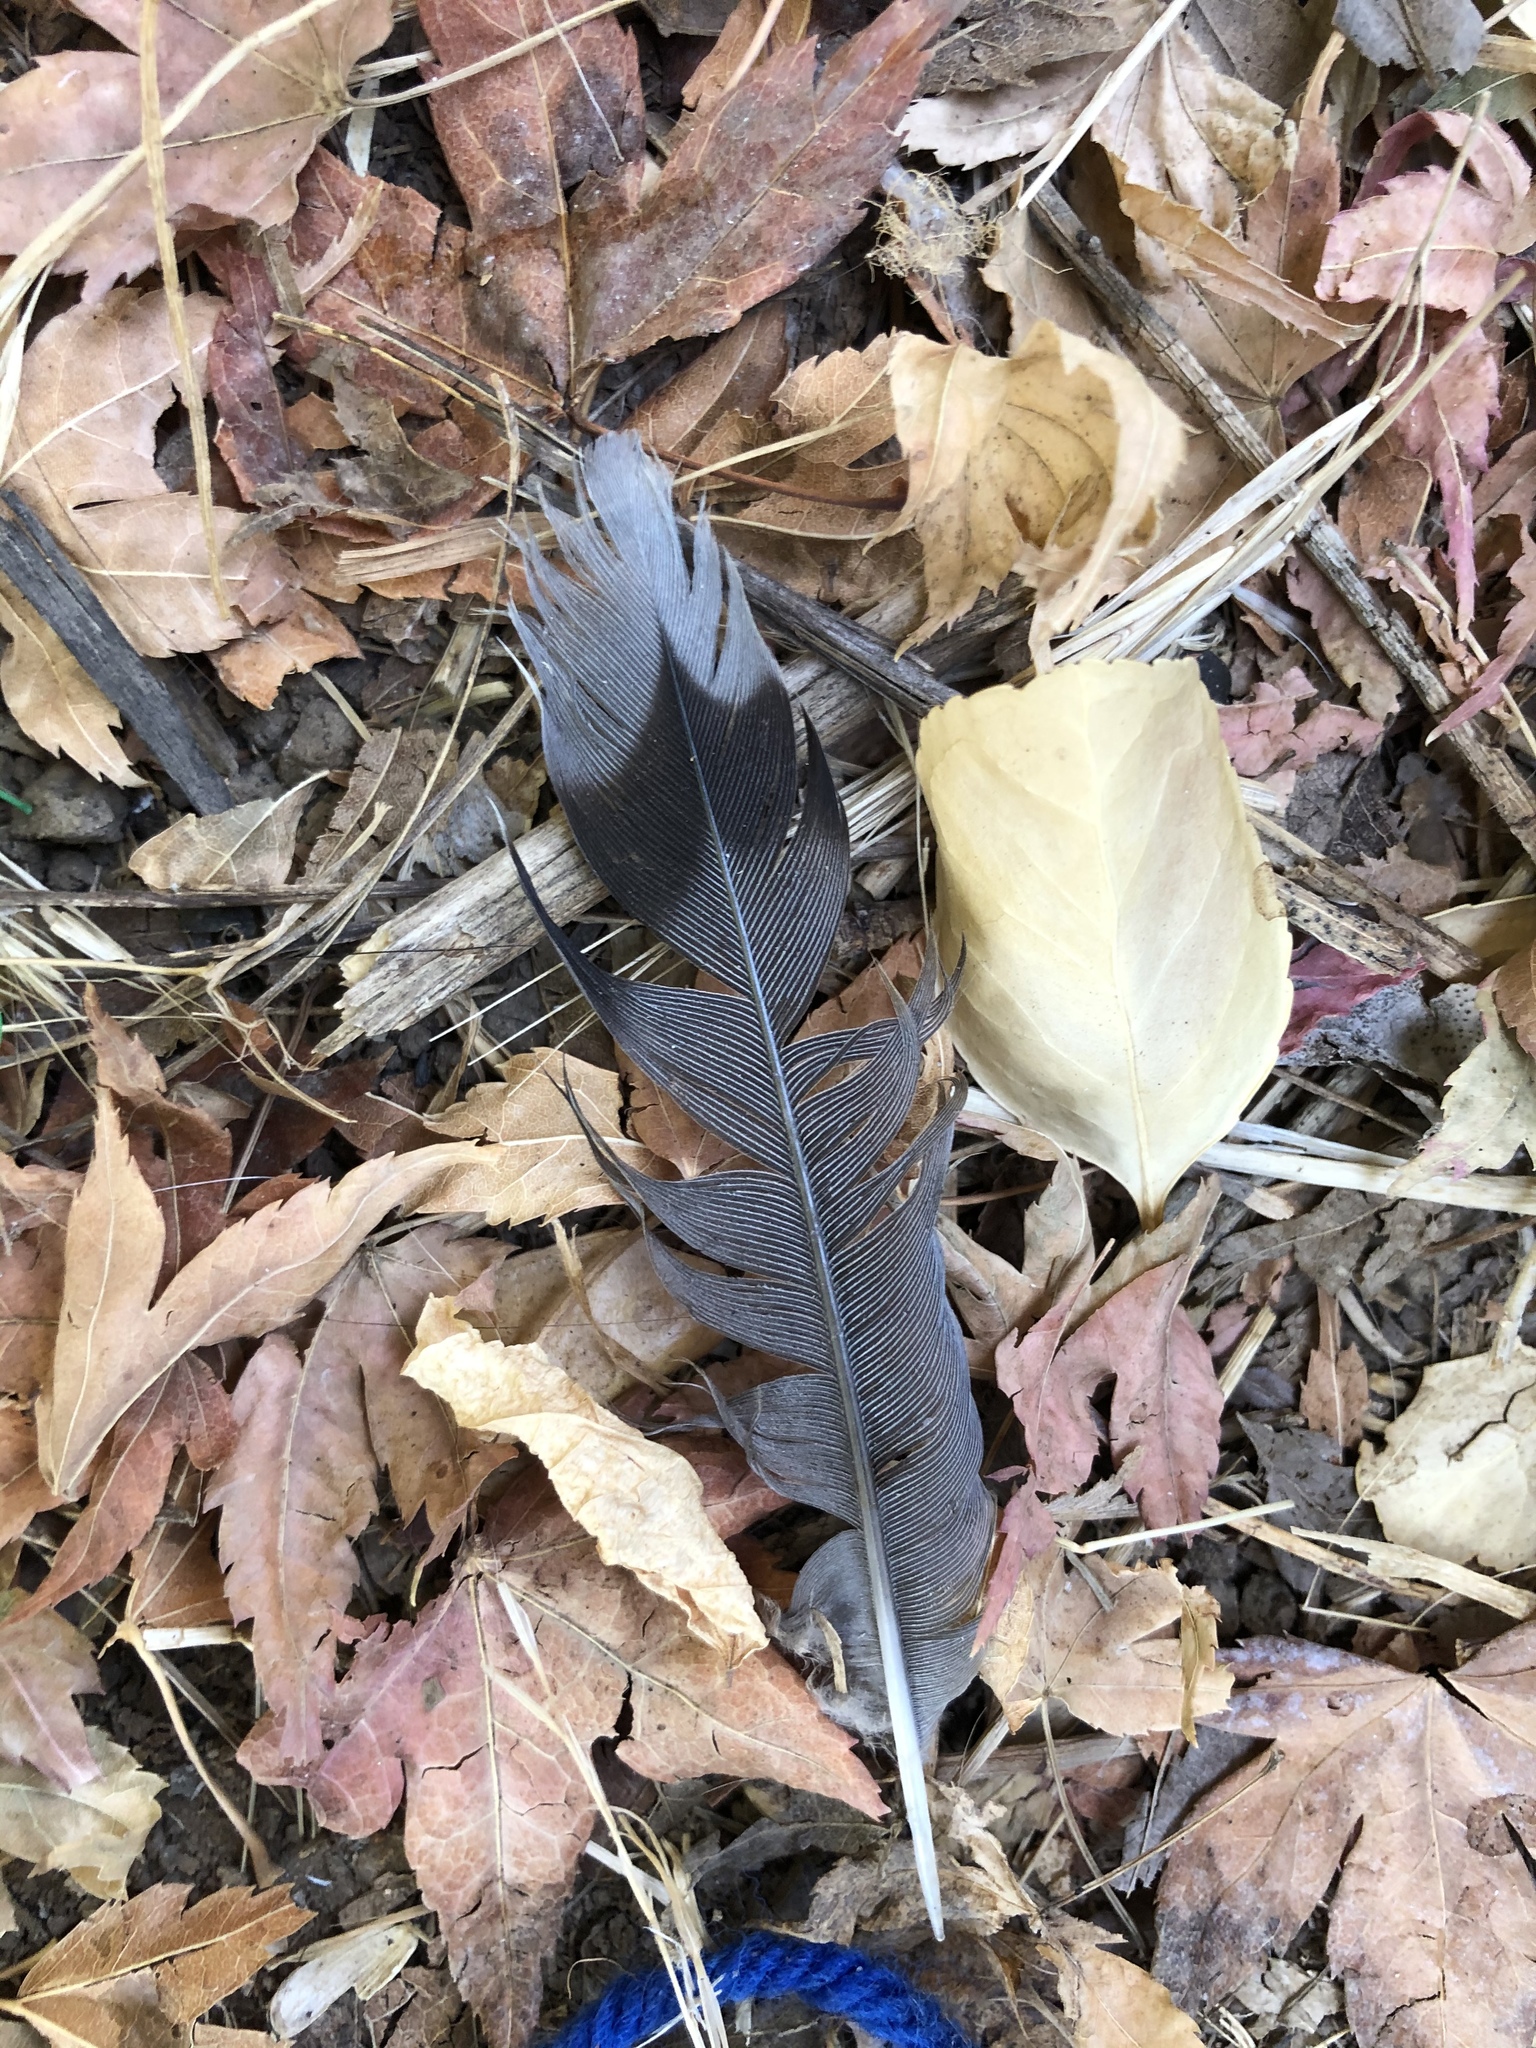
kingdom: Animalia
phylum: Chordata
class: Aves
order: Columbiformes
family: Columbidae
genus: Zenaida
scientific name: Zenaida macroura
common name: Mourning dove
